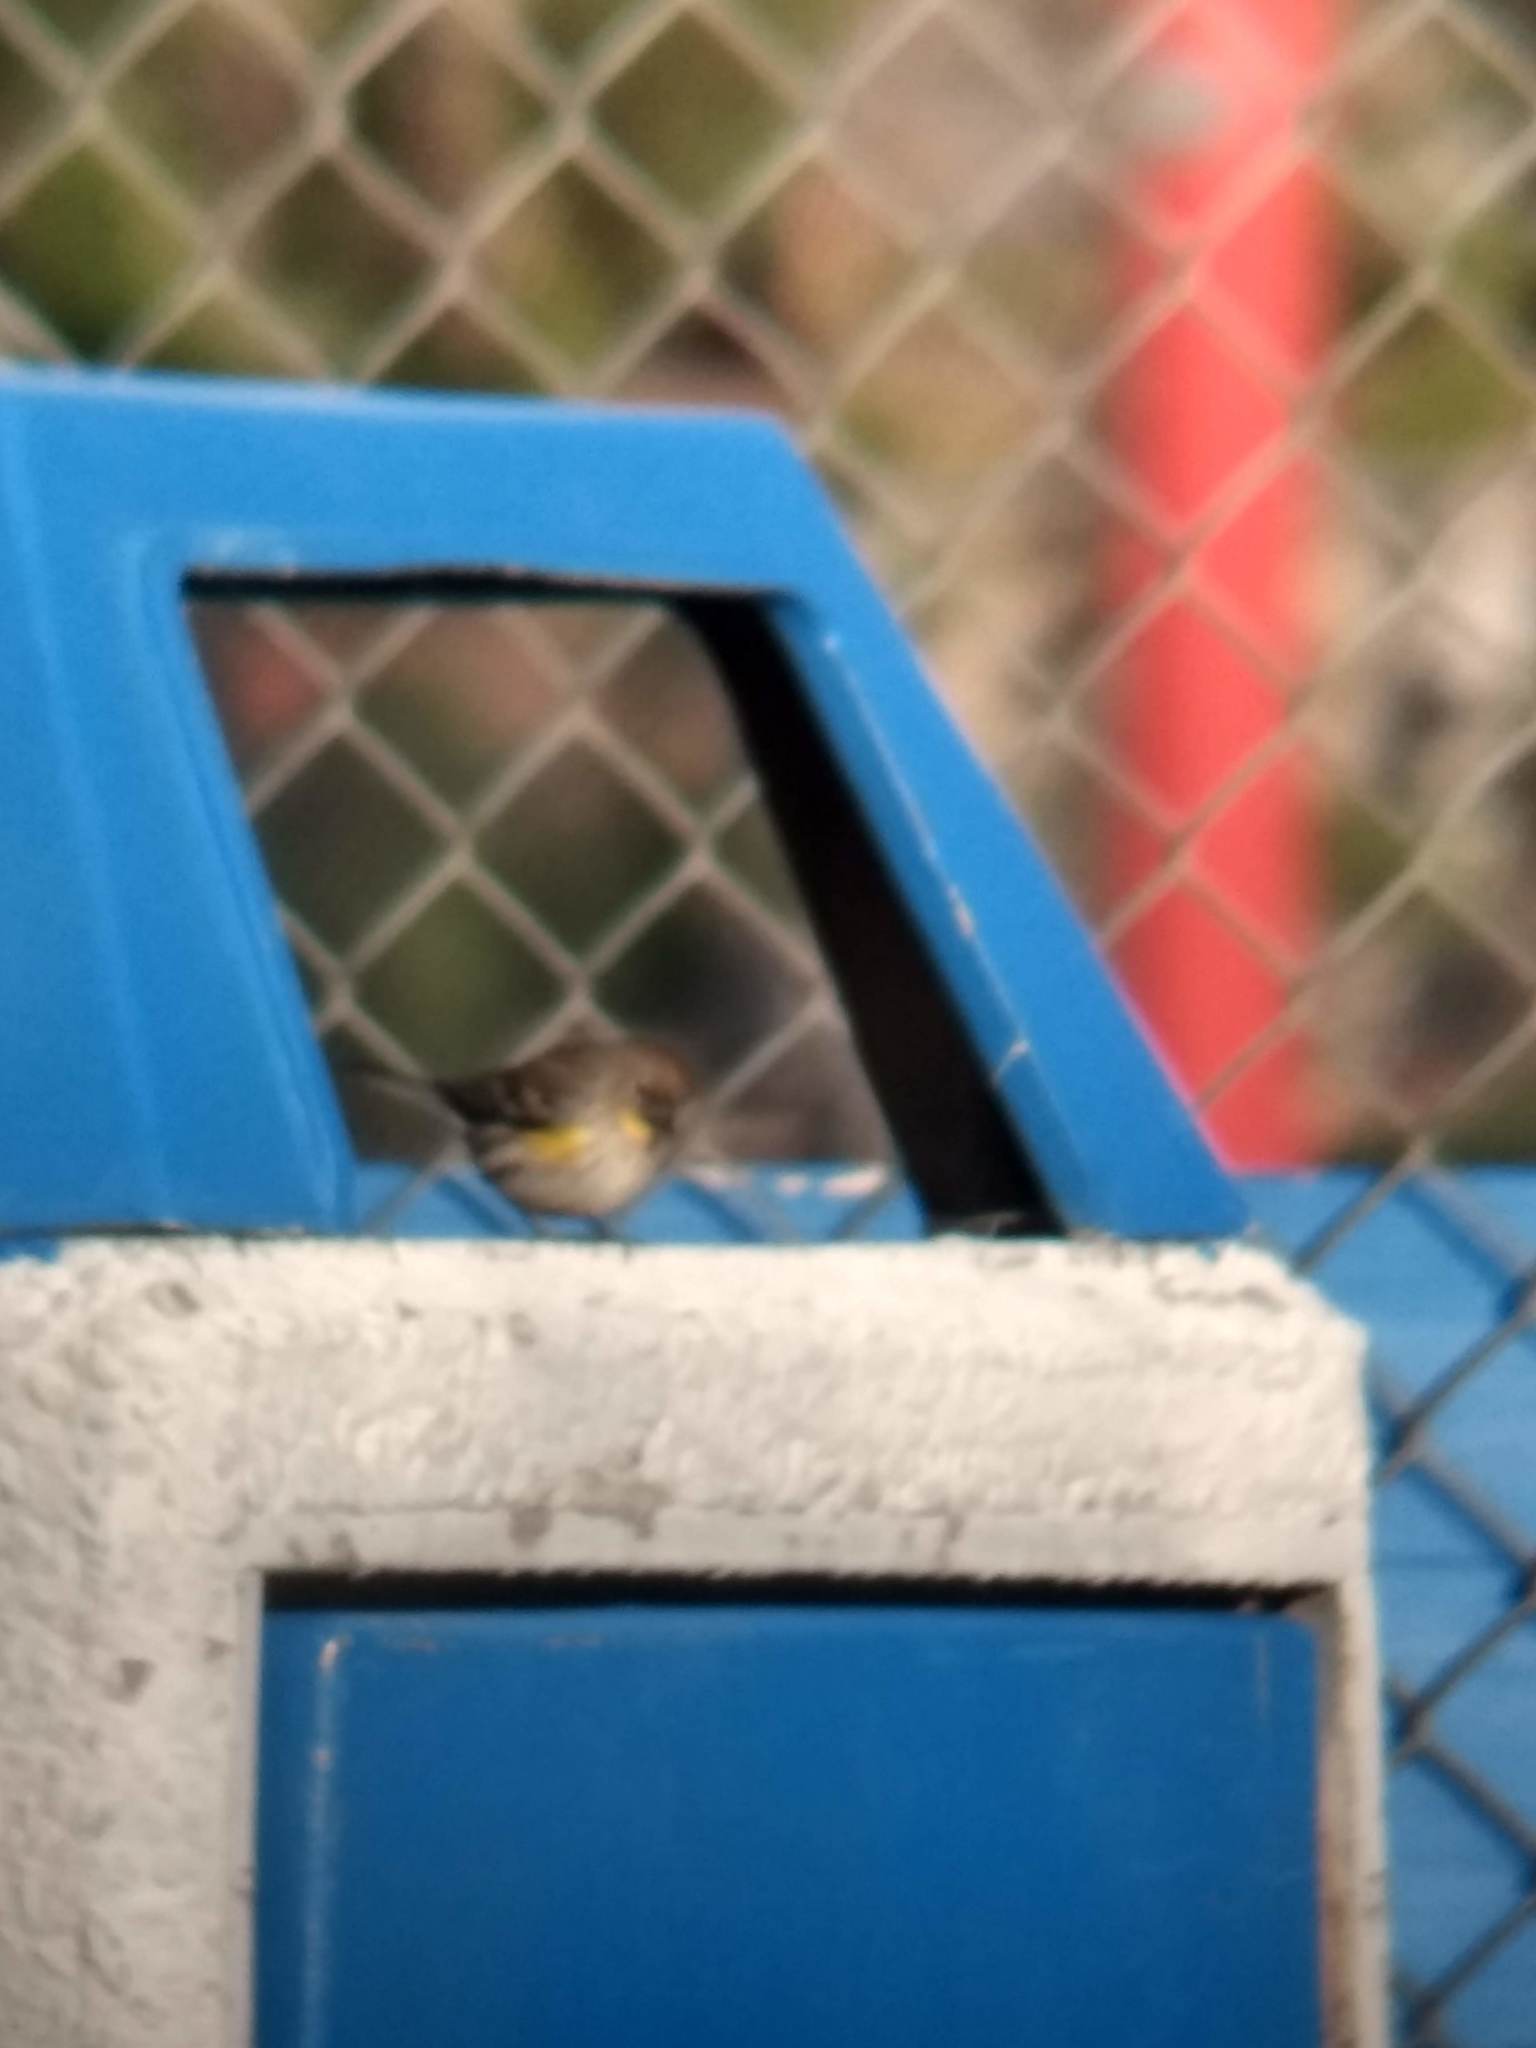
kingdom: Animalia
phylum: Chordata
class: Aves
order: Passeriformes
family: Parulidae
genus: Setophaga
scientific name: Setophaga coronata
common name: Myrtle warbler
